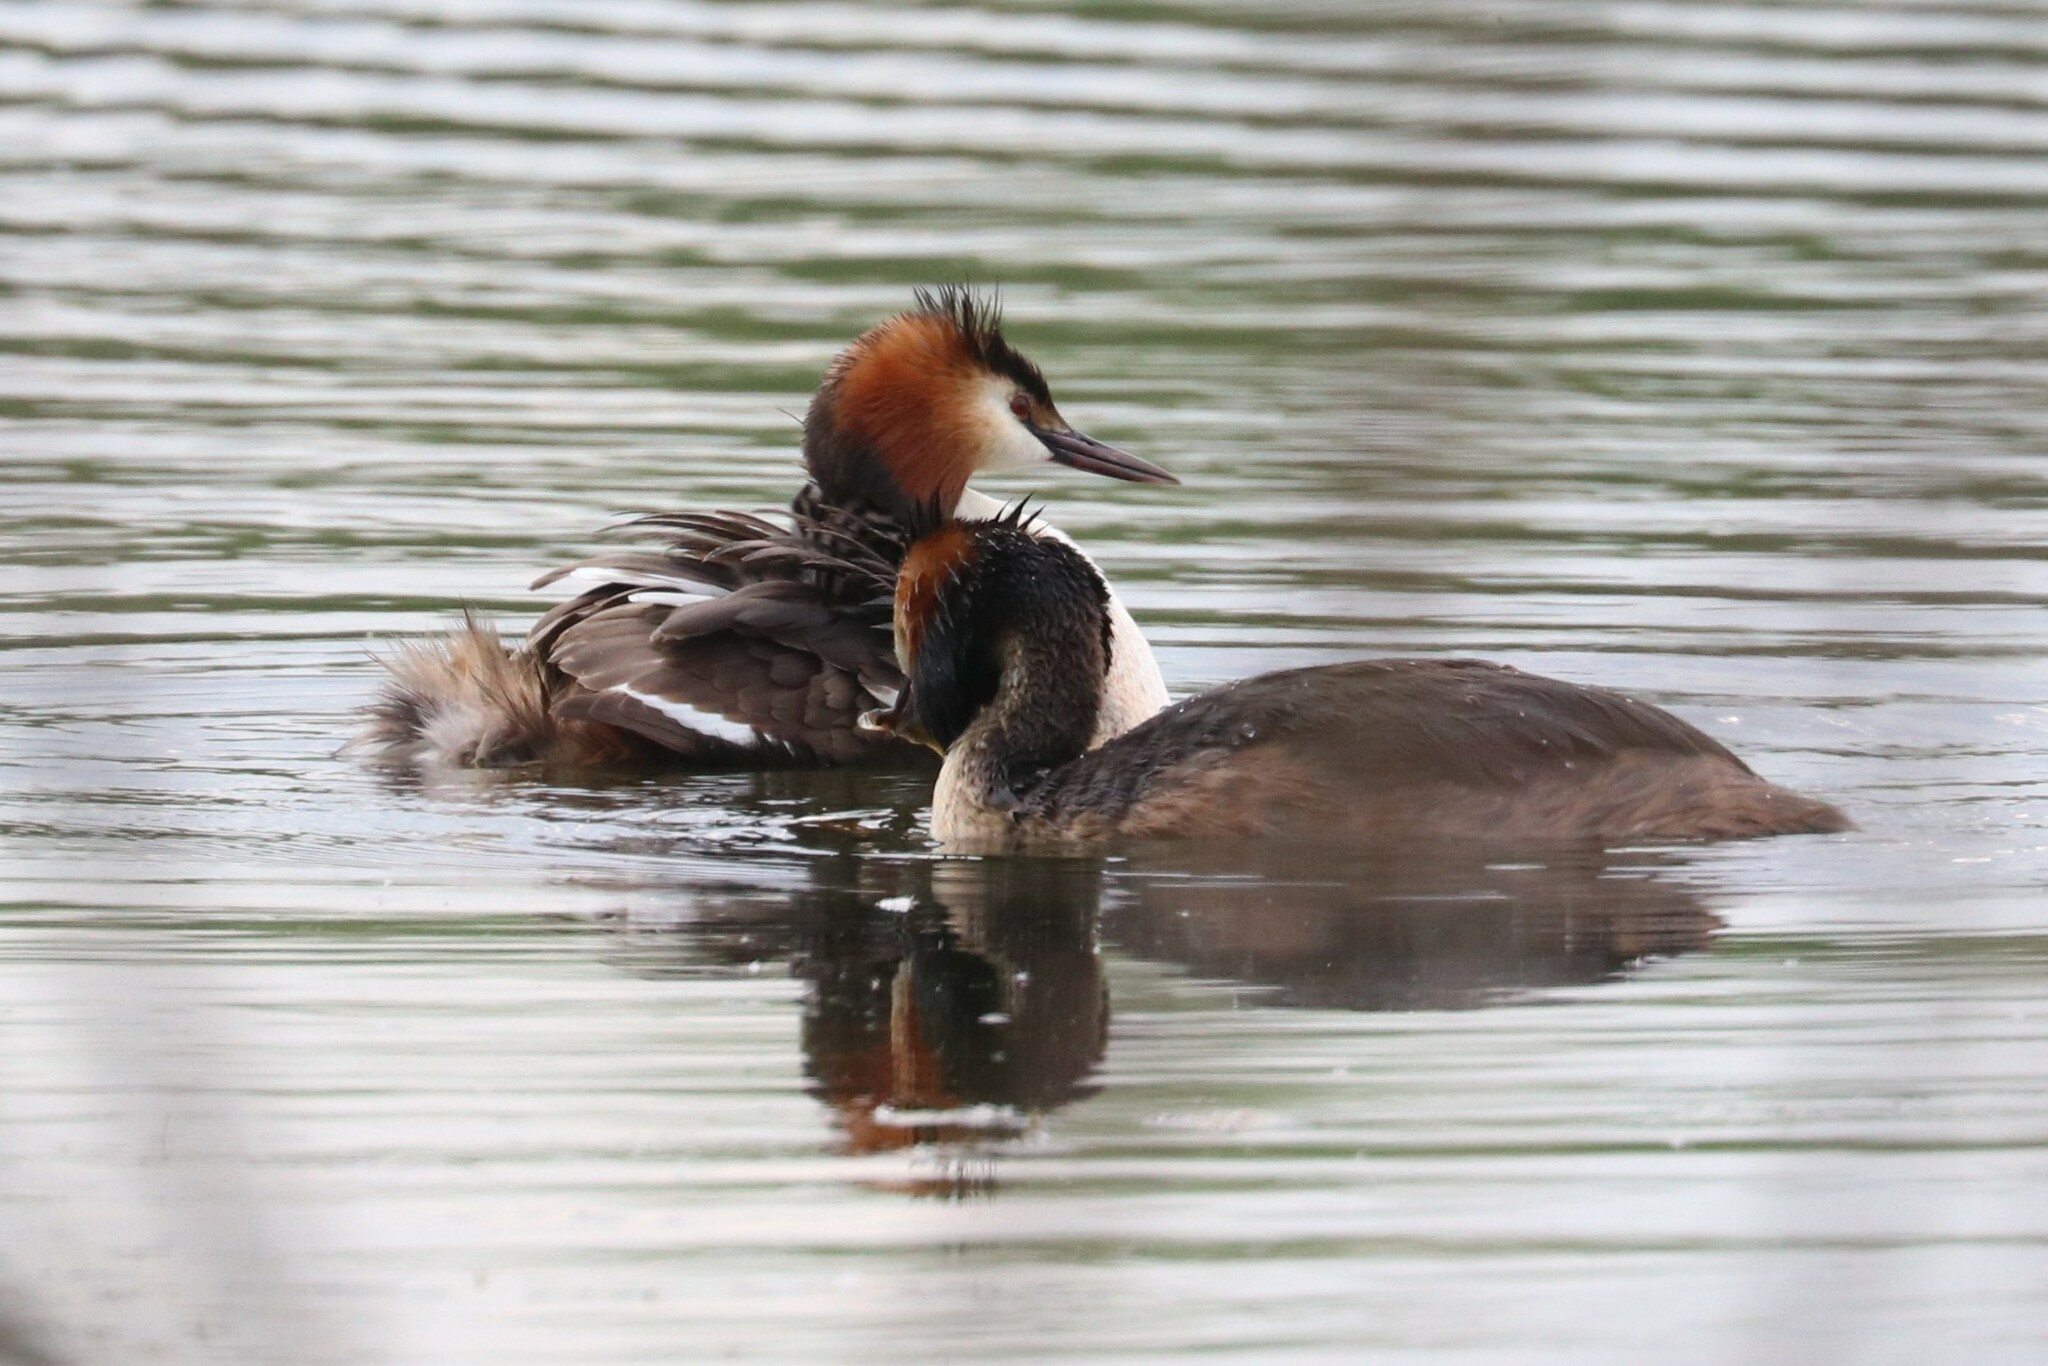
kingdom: Animalia
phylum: Chordata
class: Aves
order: Podicipediformes
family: Podicipedidae
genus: Podiceps
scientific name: Podiceps cristatus
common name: Great crested grebe
